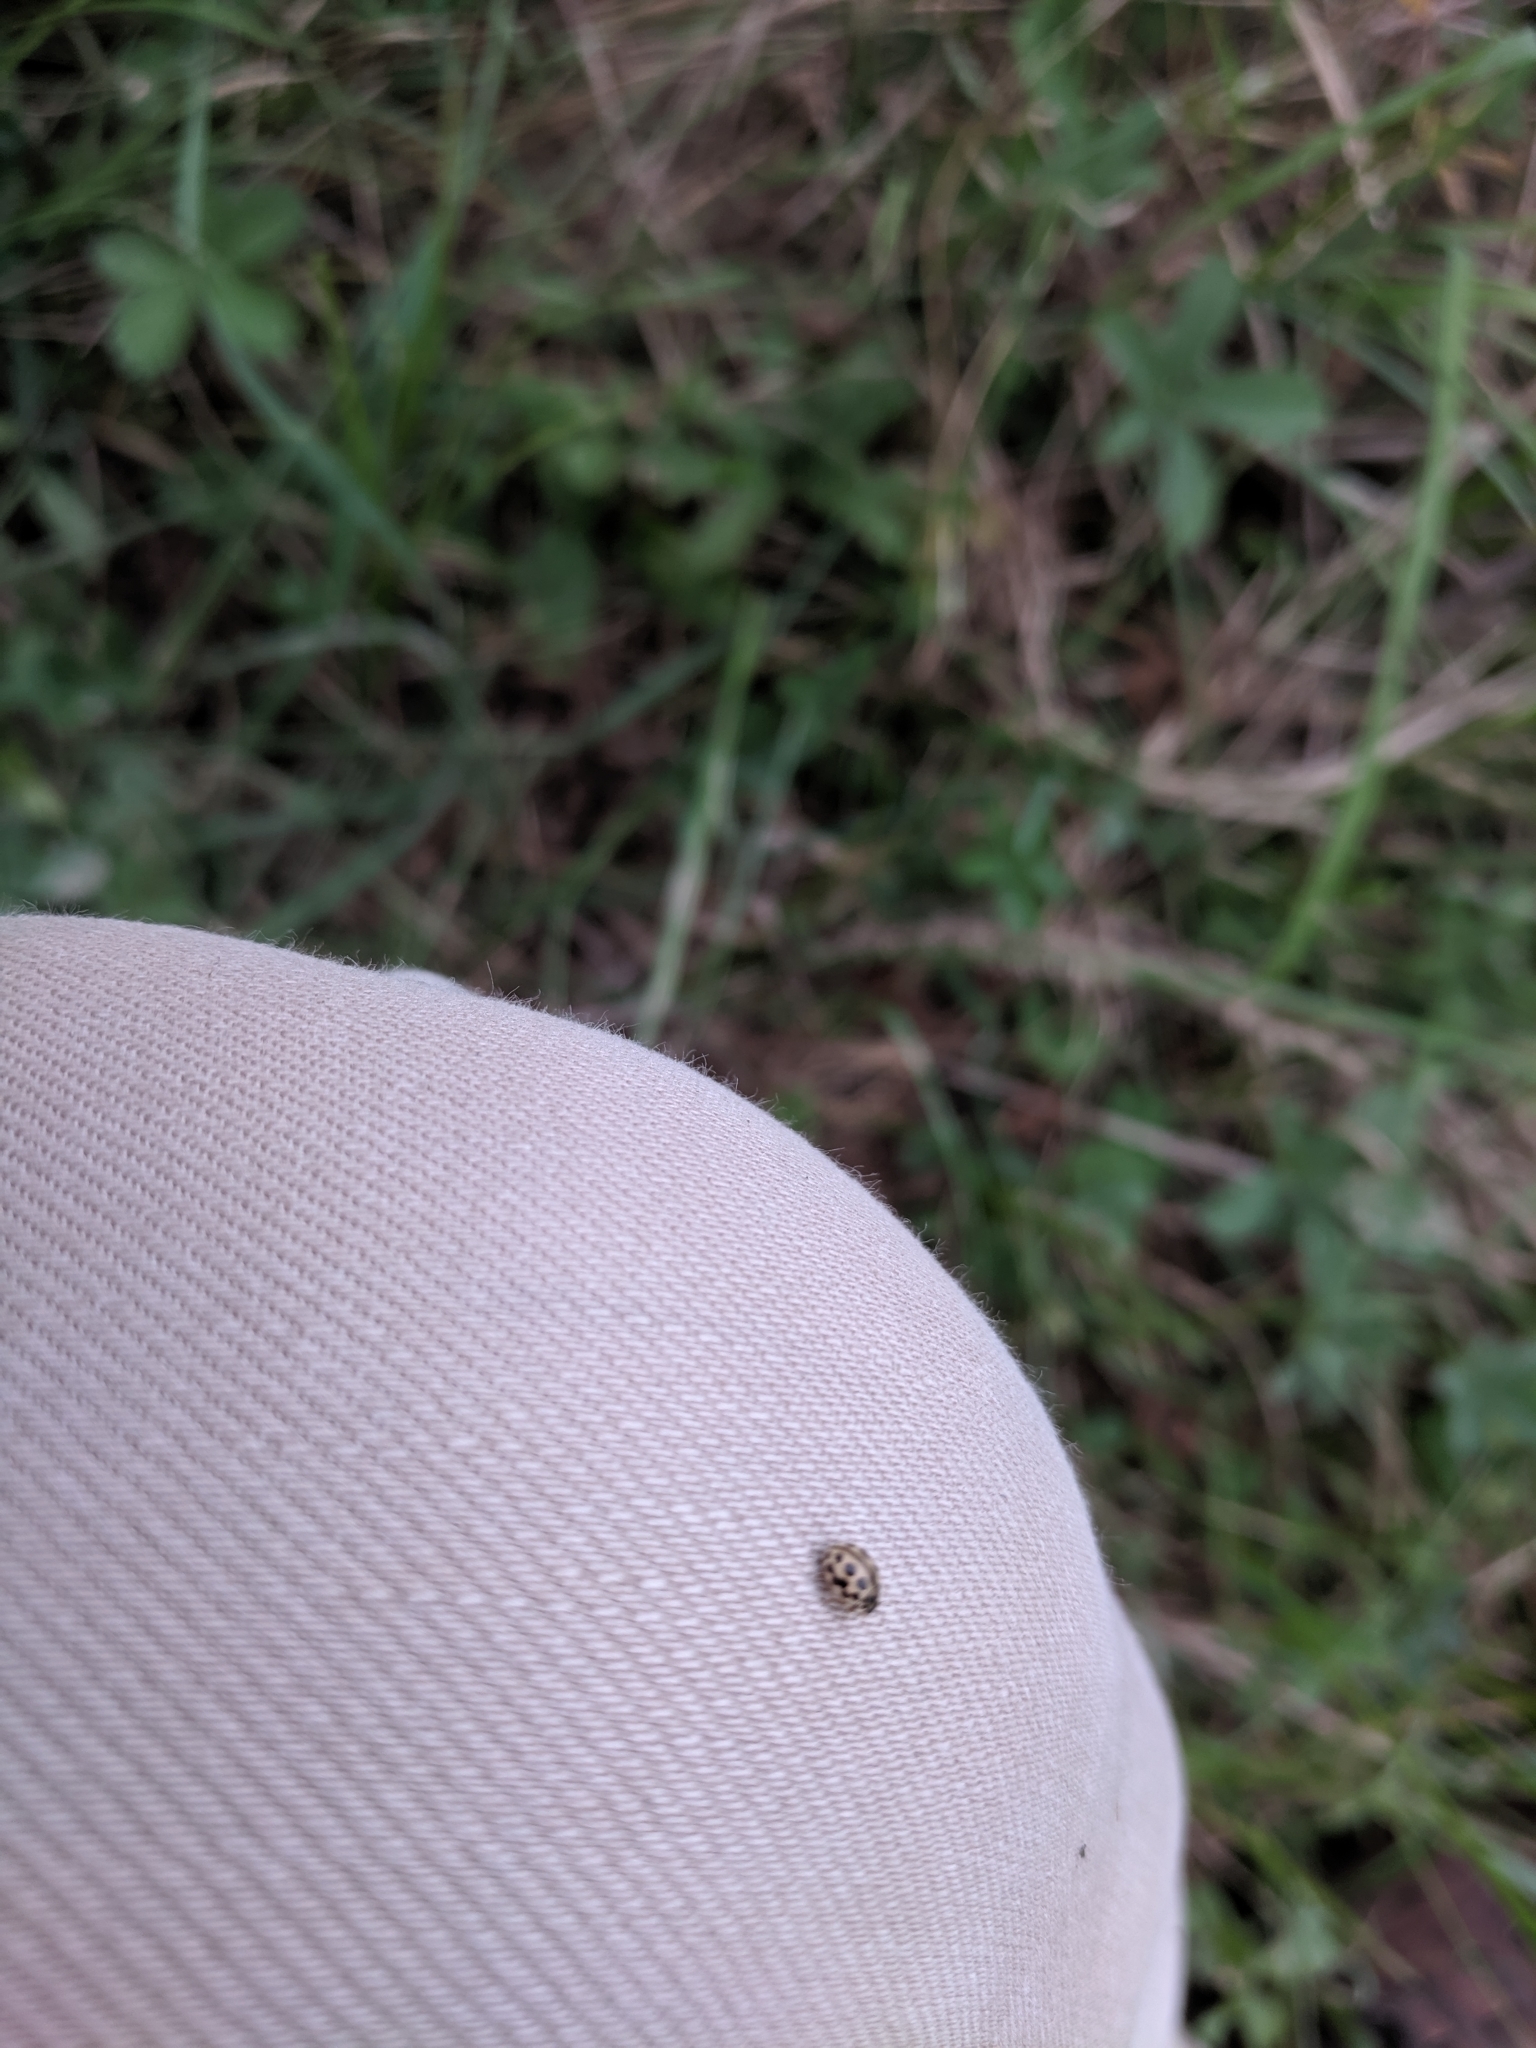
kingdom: Animalia
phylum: Arthropoda
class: Insecta
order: Coleoptera
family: Coccinellidae
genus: Tytthaspis
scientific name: Tytthaspis sedecimpunctata
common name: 16-spot ladybird
